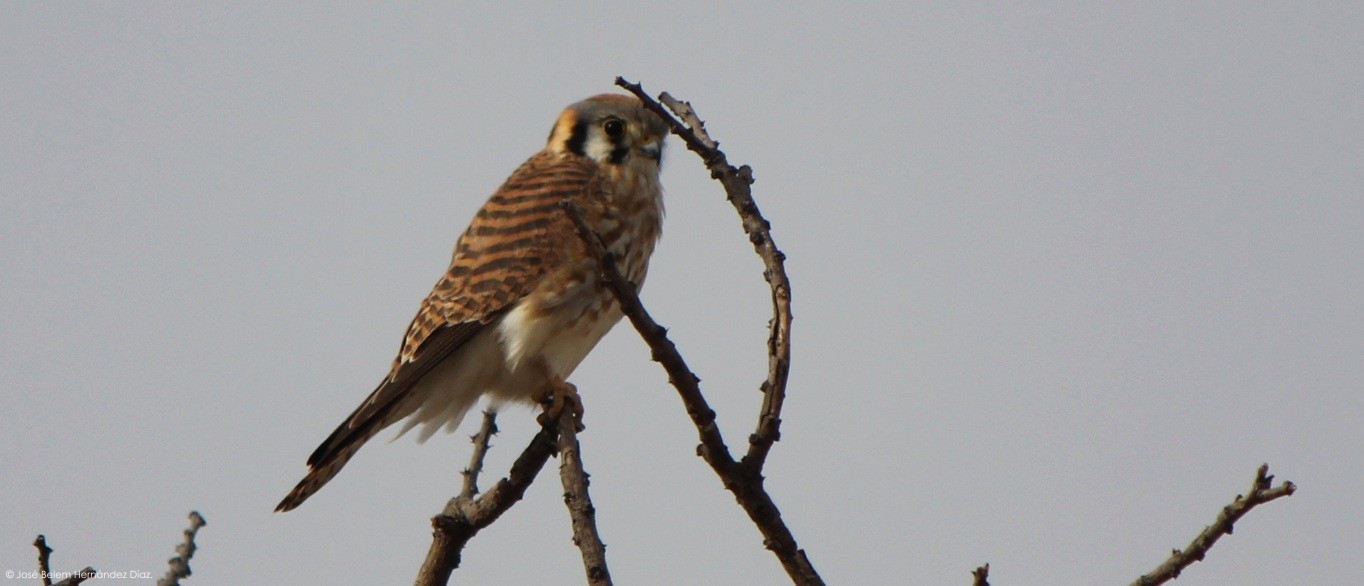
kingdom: Animalia
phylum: Chordata
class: Aves
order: Falconiformes
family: Falconidae
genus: Falco
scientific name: Falco sparverius
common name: American kestrel
